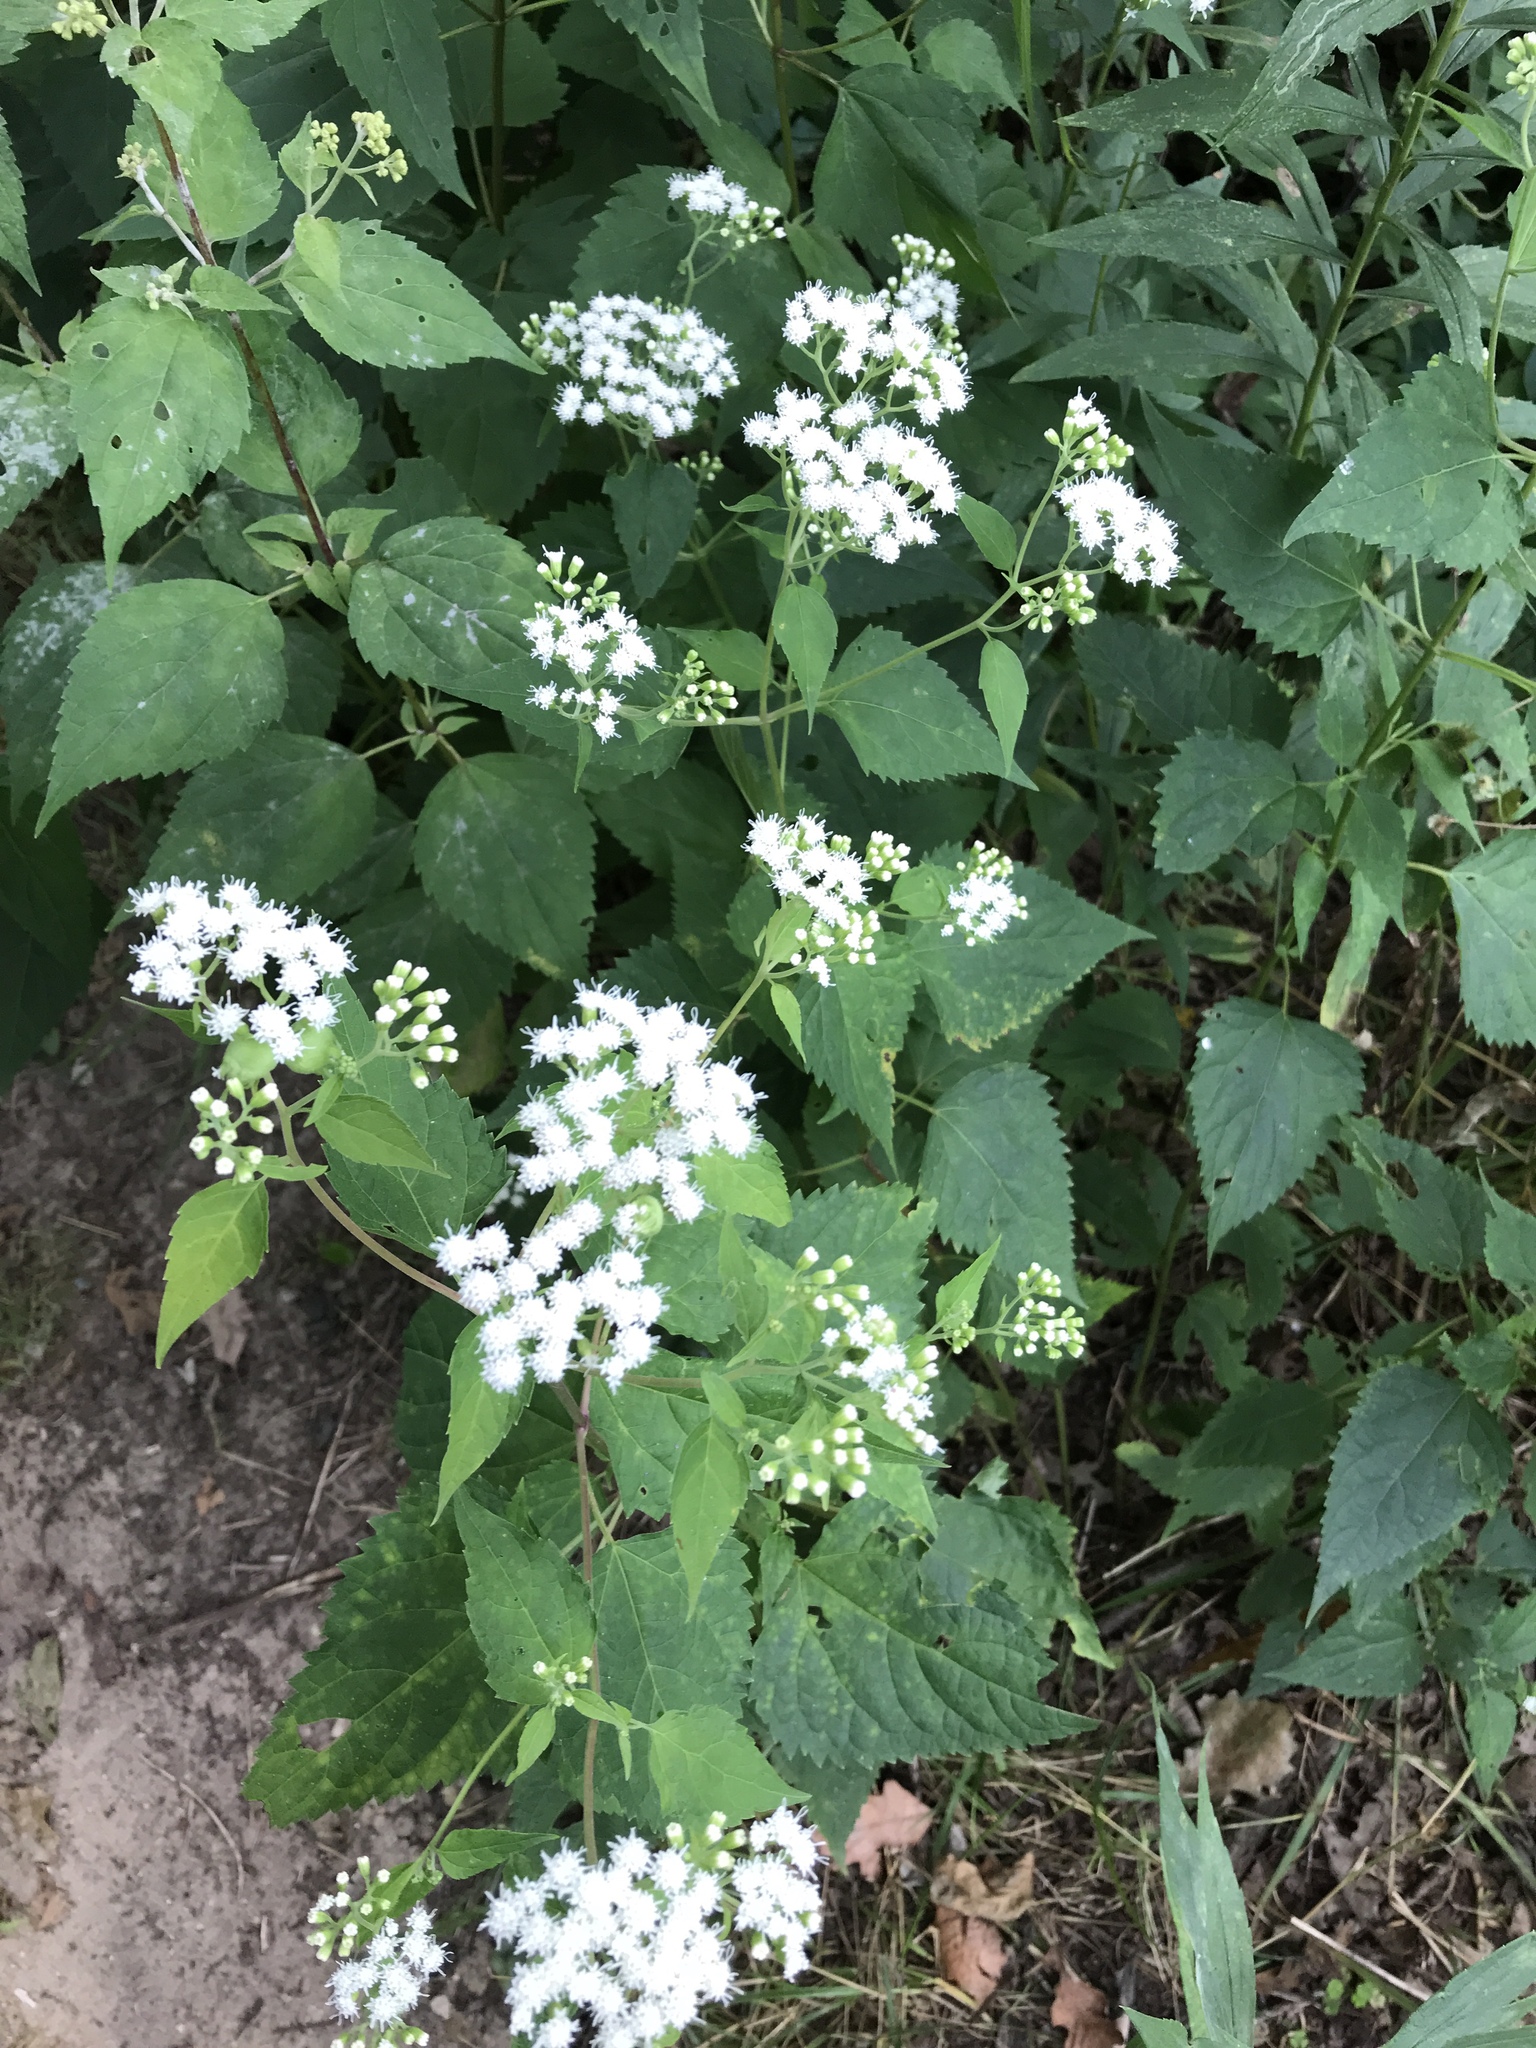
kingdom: Plantae
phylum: Tracheophyta
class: Magnoliopsida
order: Asterales
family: Asteraceae
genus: Ageratina
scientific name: Ageratina altissima
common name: White snakeroot
